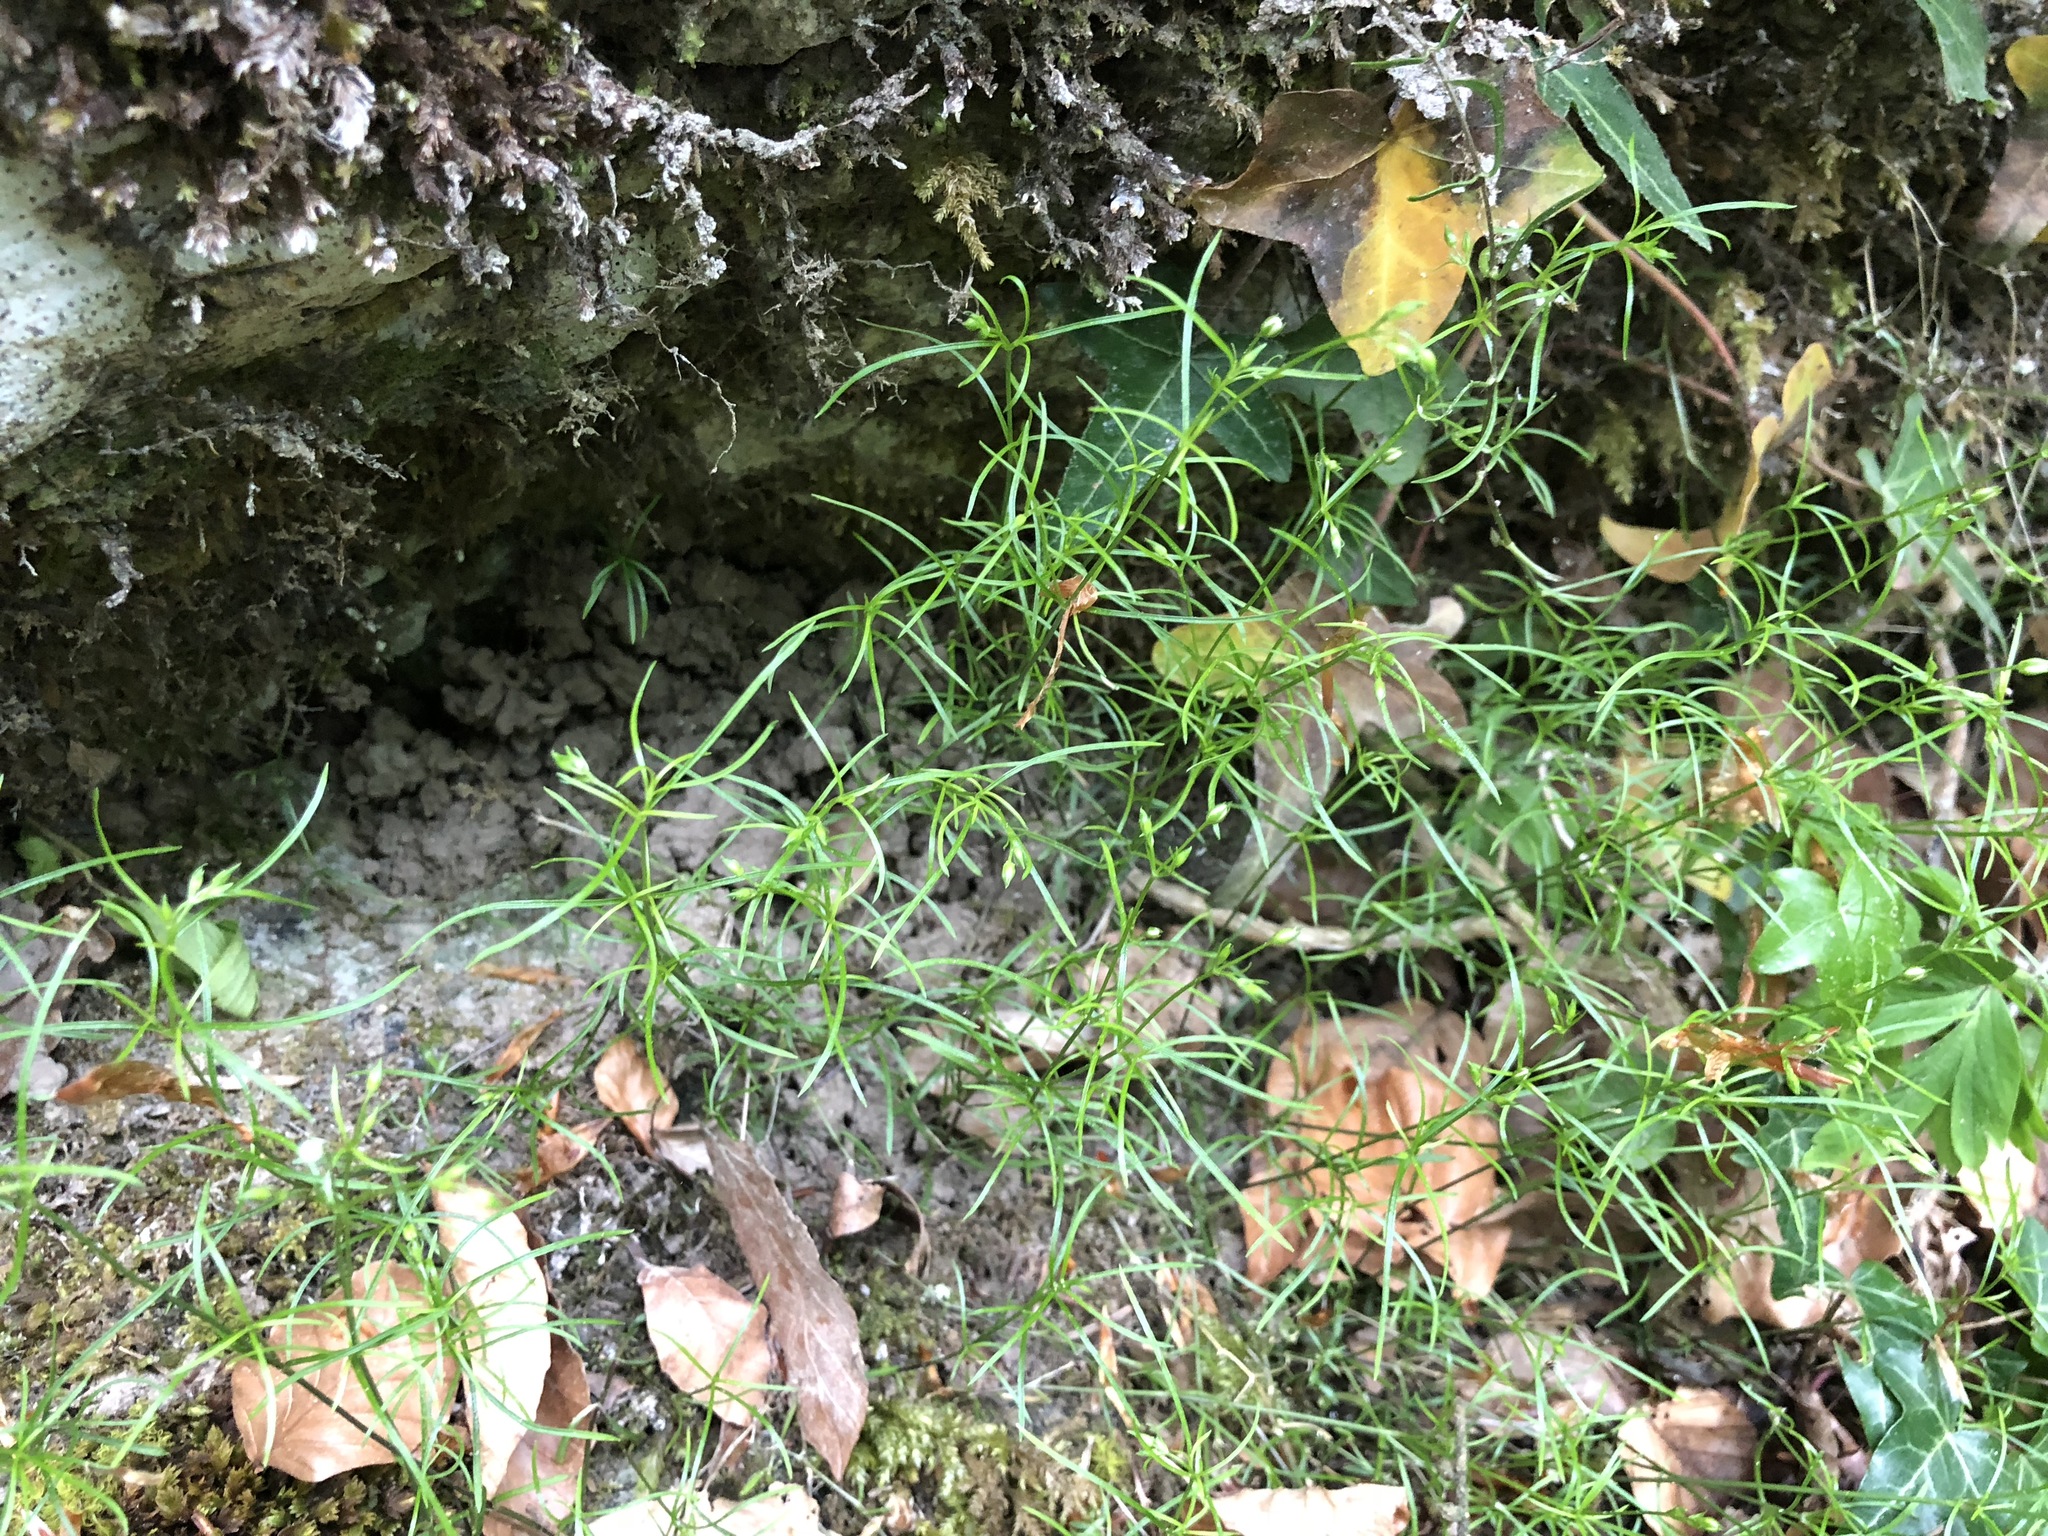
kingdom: Plantae
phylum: Tracheophyta
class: Magnoliopsida
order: Caryophyllales
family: Caryophyllaceae
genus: Moehringia
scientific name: Moehringia muscosa
